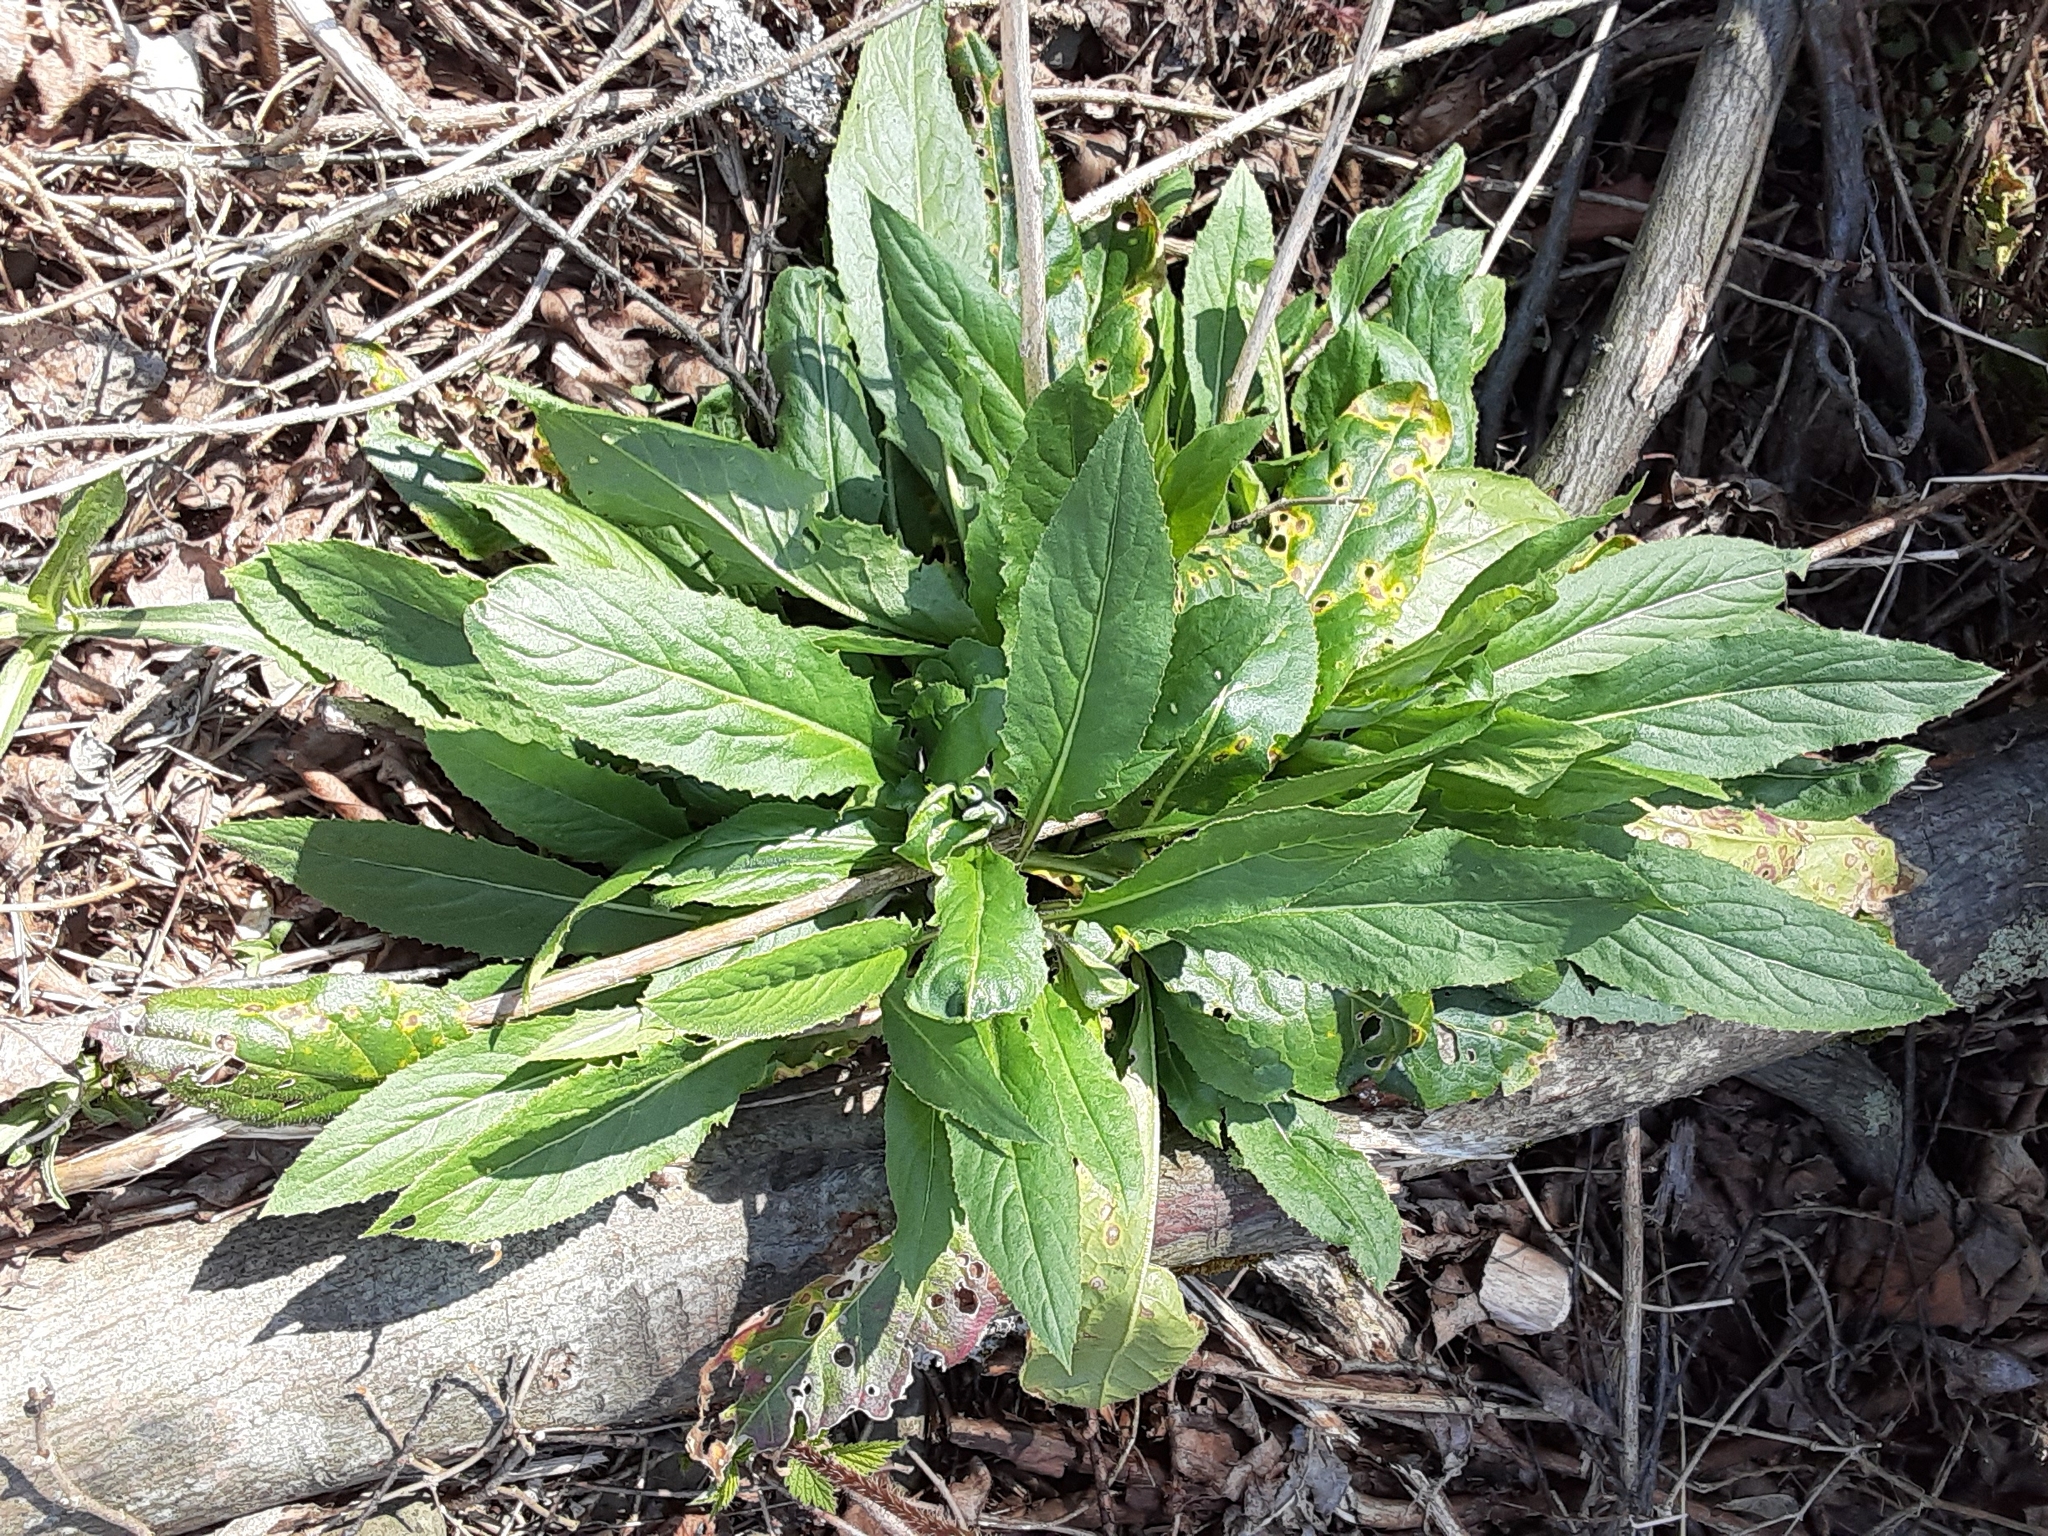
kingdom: Plantae
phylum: Tracheophyta
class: Magnoliopsida
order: Brassicales
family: Brassicaceae
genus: Hesperis
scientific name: Hesperis matronalis
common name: Dame's-violet
